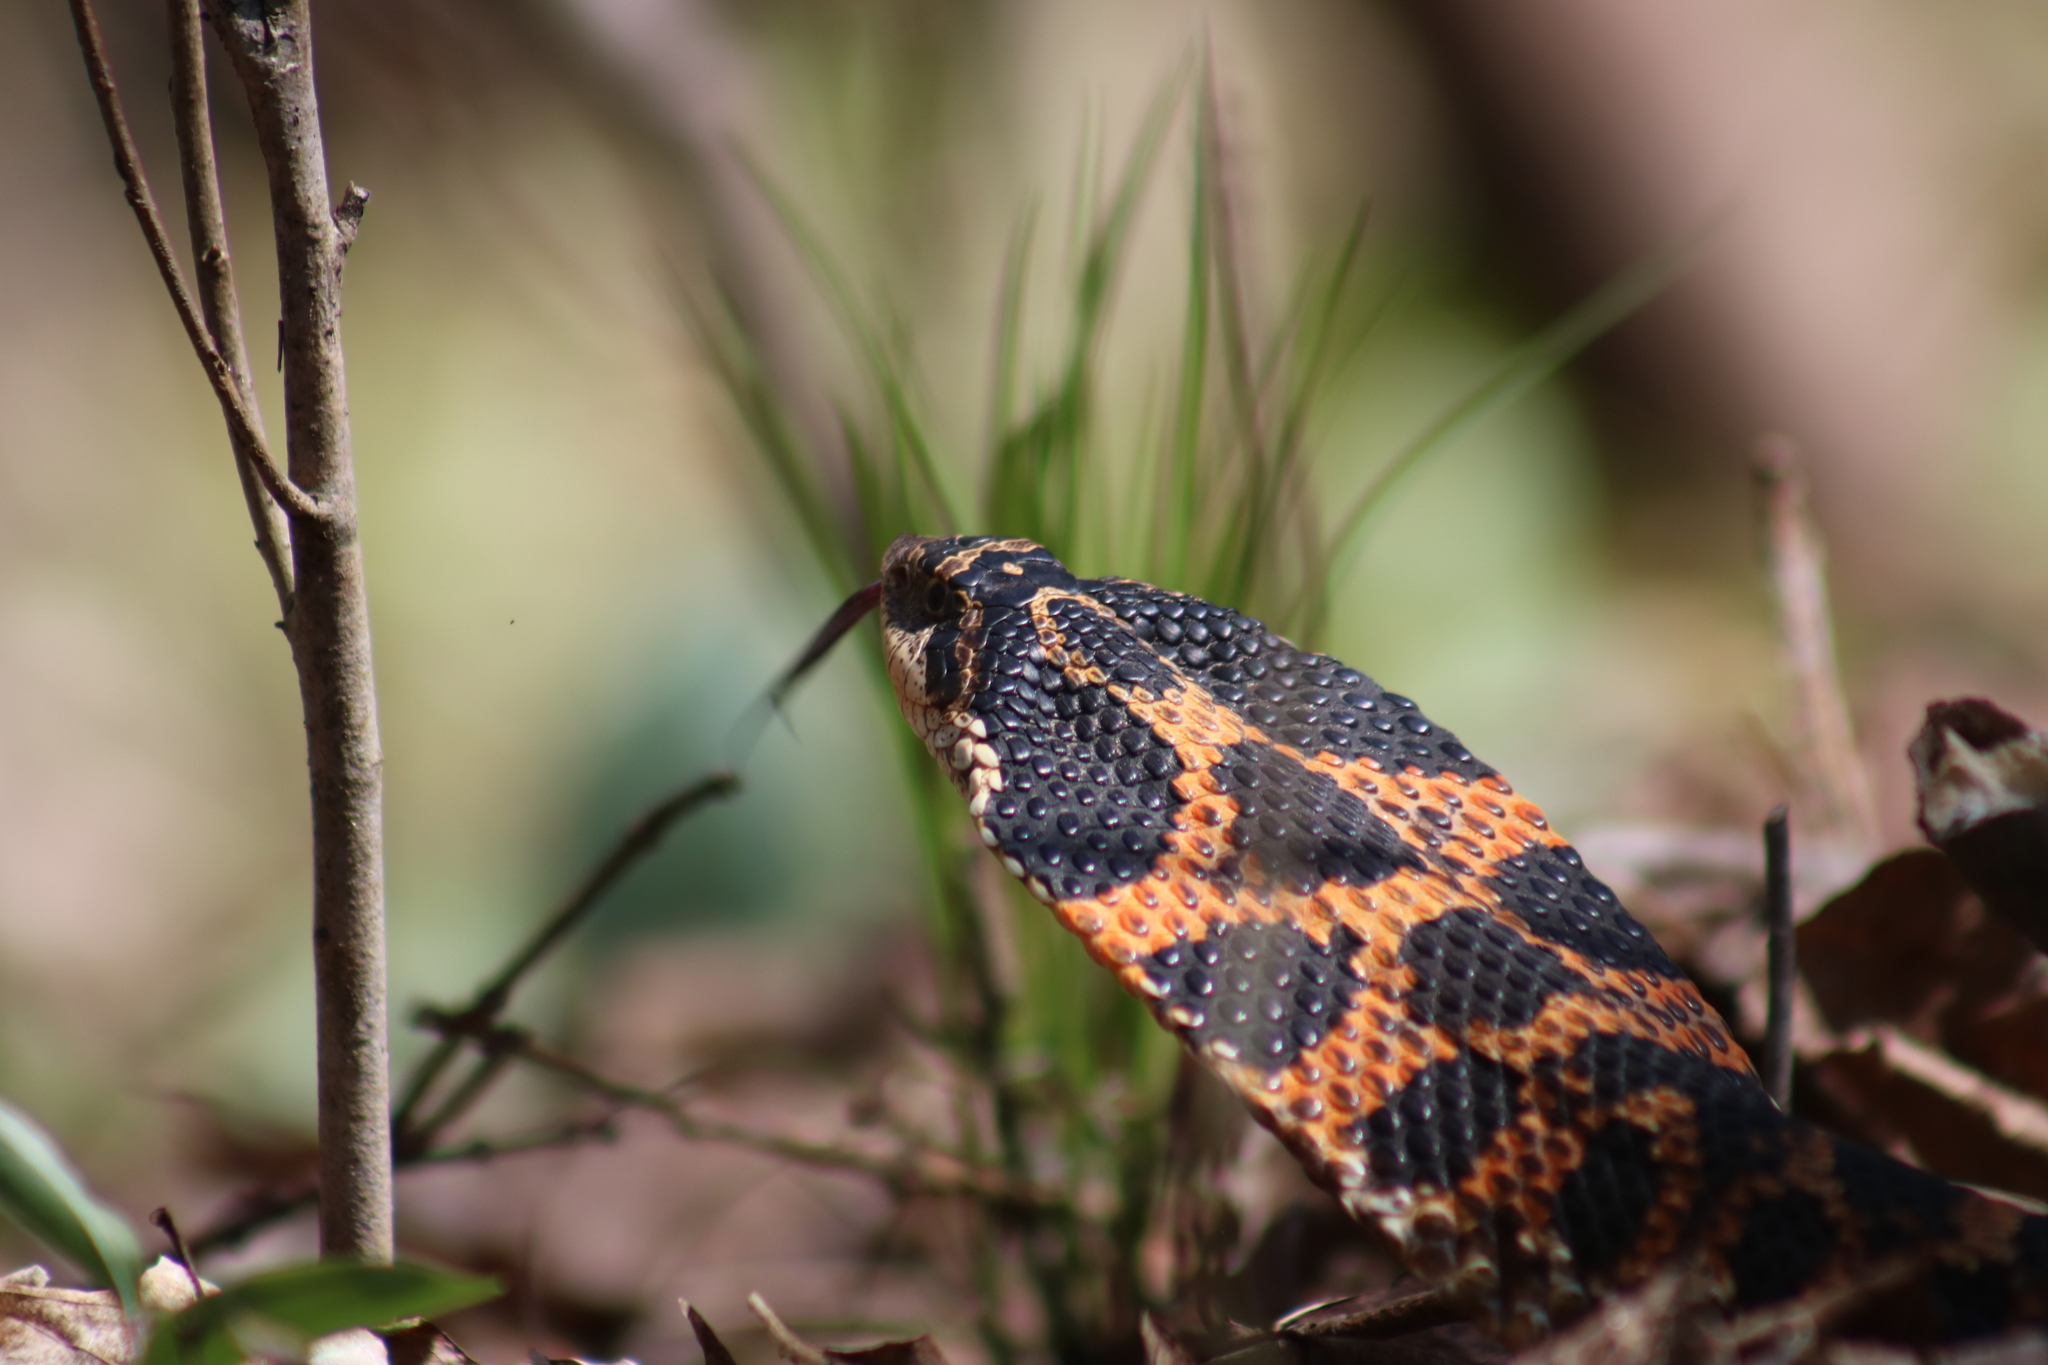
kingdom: Animalia
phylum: Chordata
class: Squamata
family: Colubridae
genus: Heterodon
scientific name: Heterodon platirhinos
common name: Eastern hognose snake
